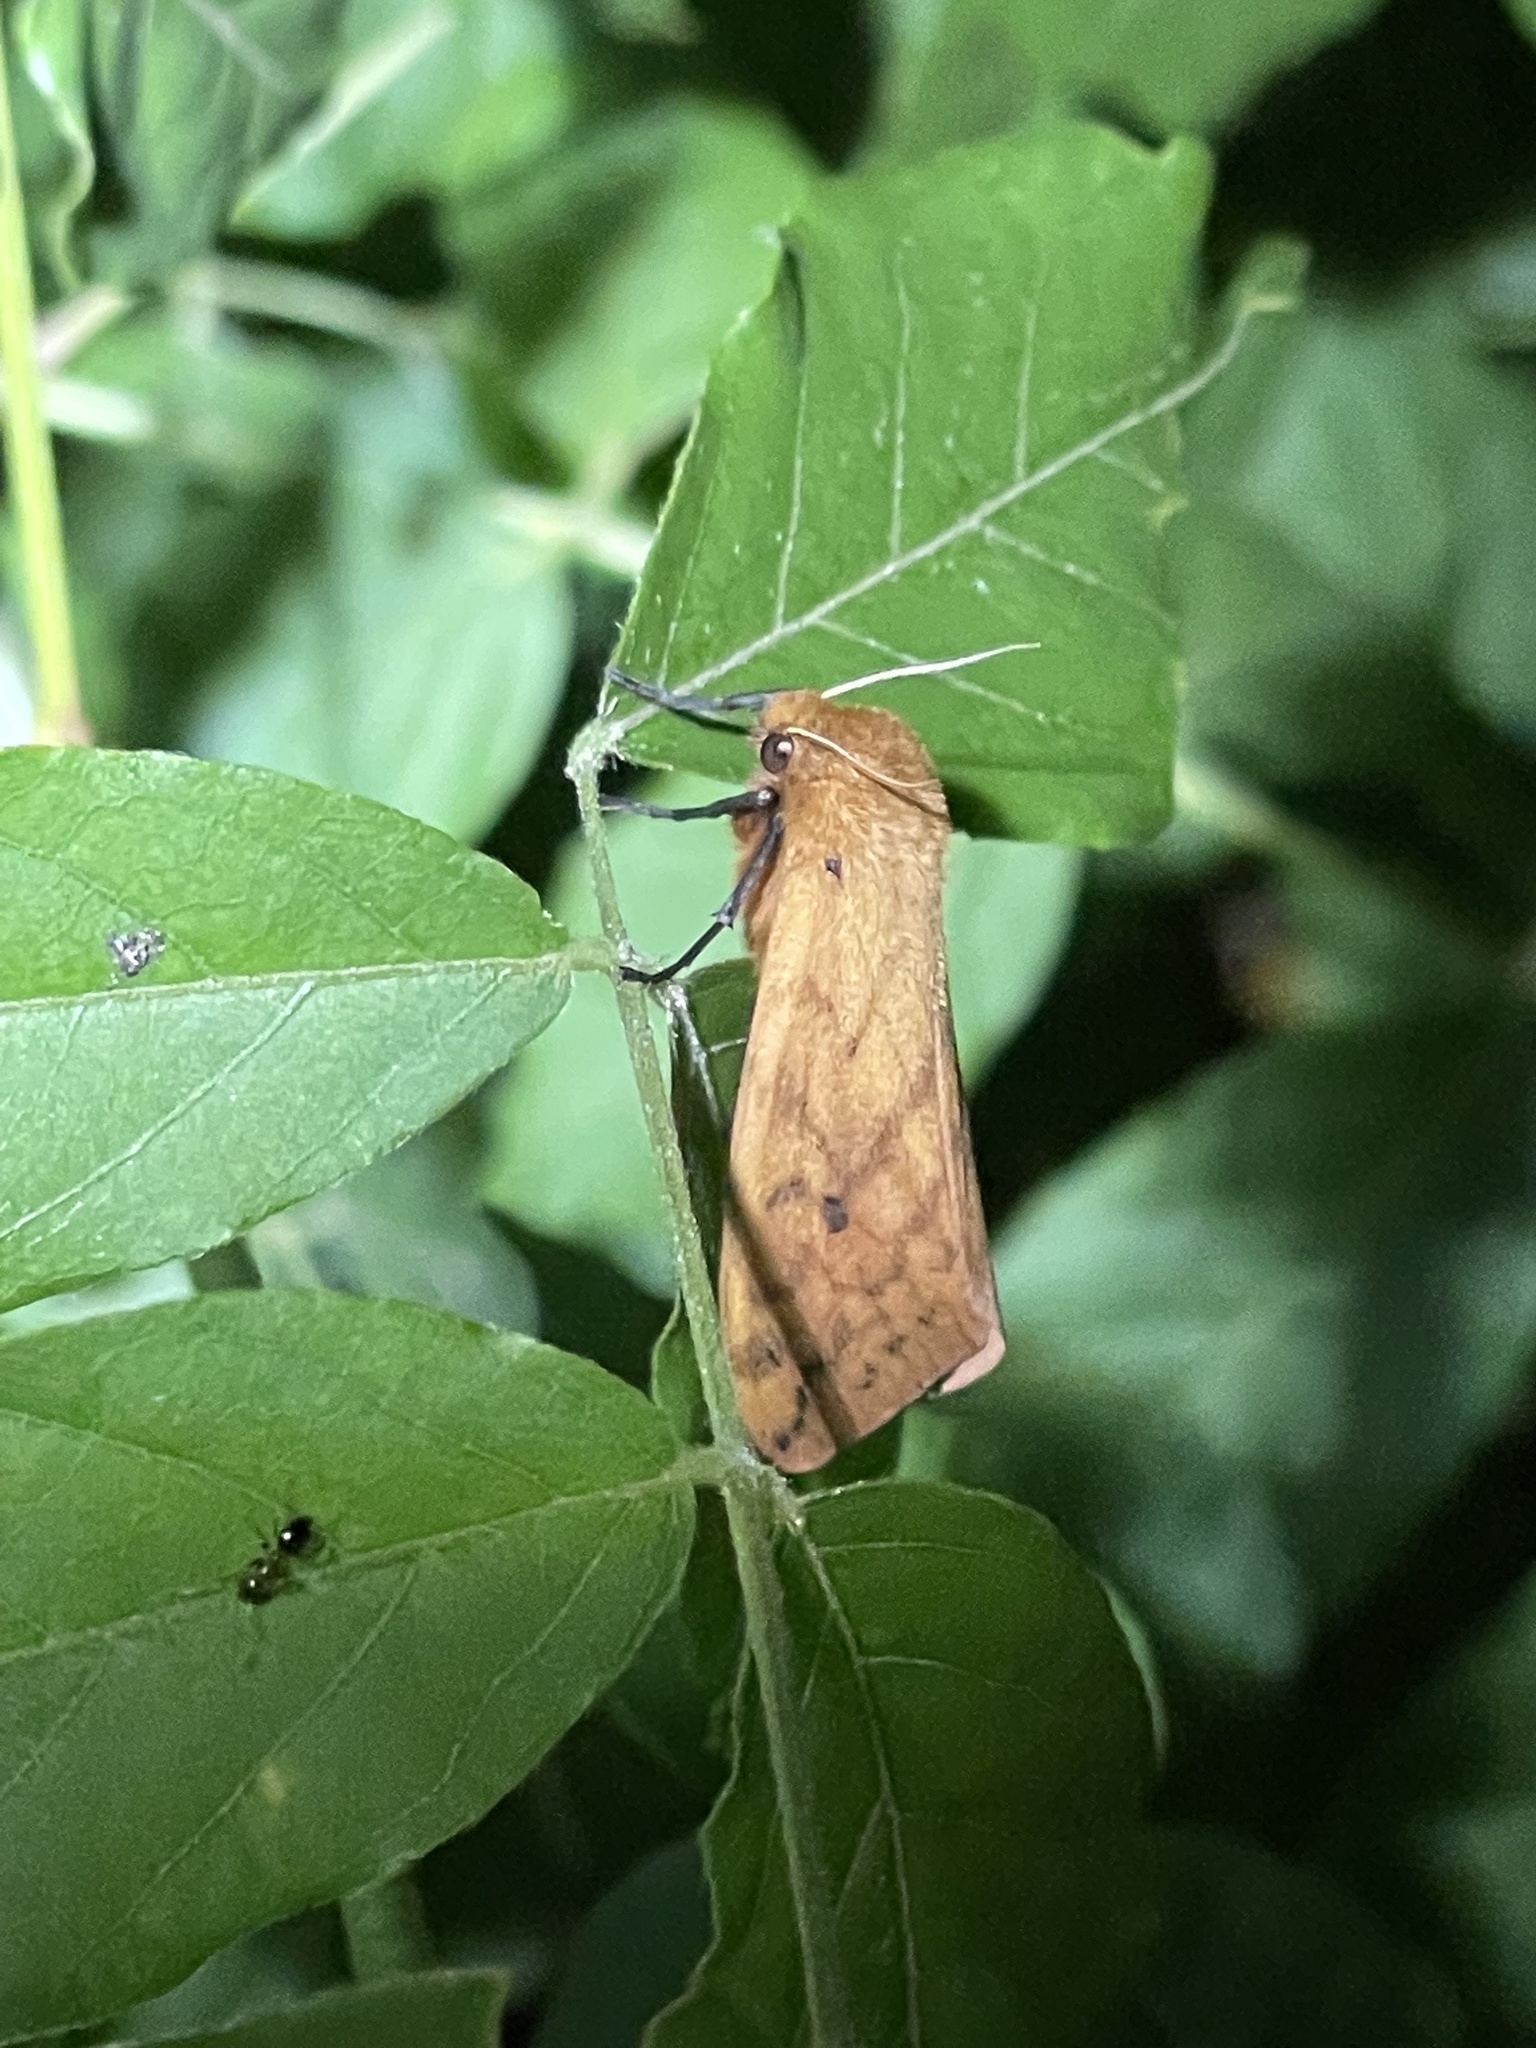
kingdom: Animalia
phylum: Arthropoda
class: Insecta
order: Lepidoptera
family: Erebidae
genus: Pyrrharctia
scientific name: Pyrrharctia isabella
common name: Isabella tiger moth
